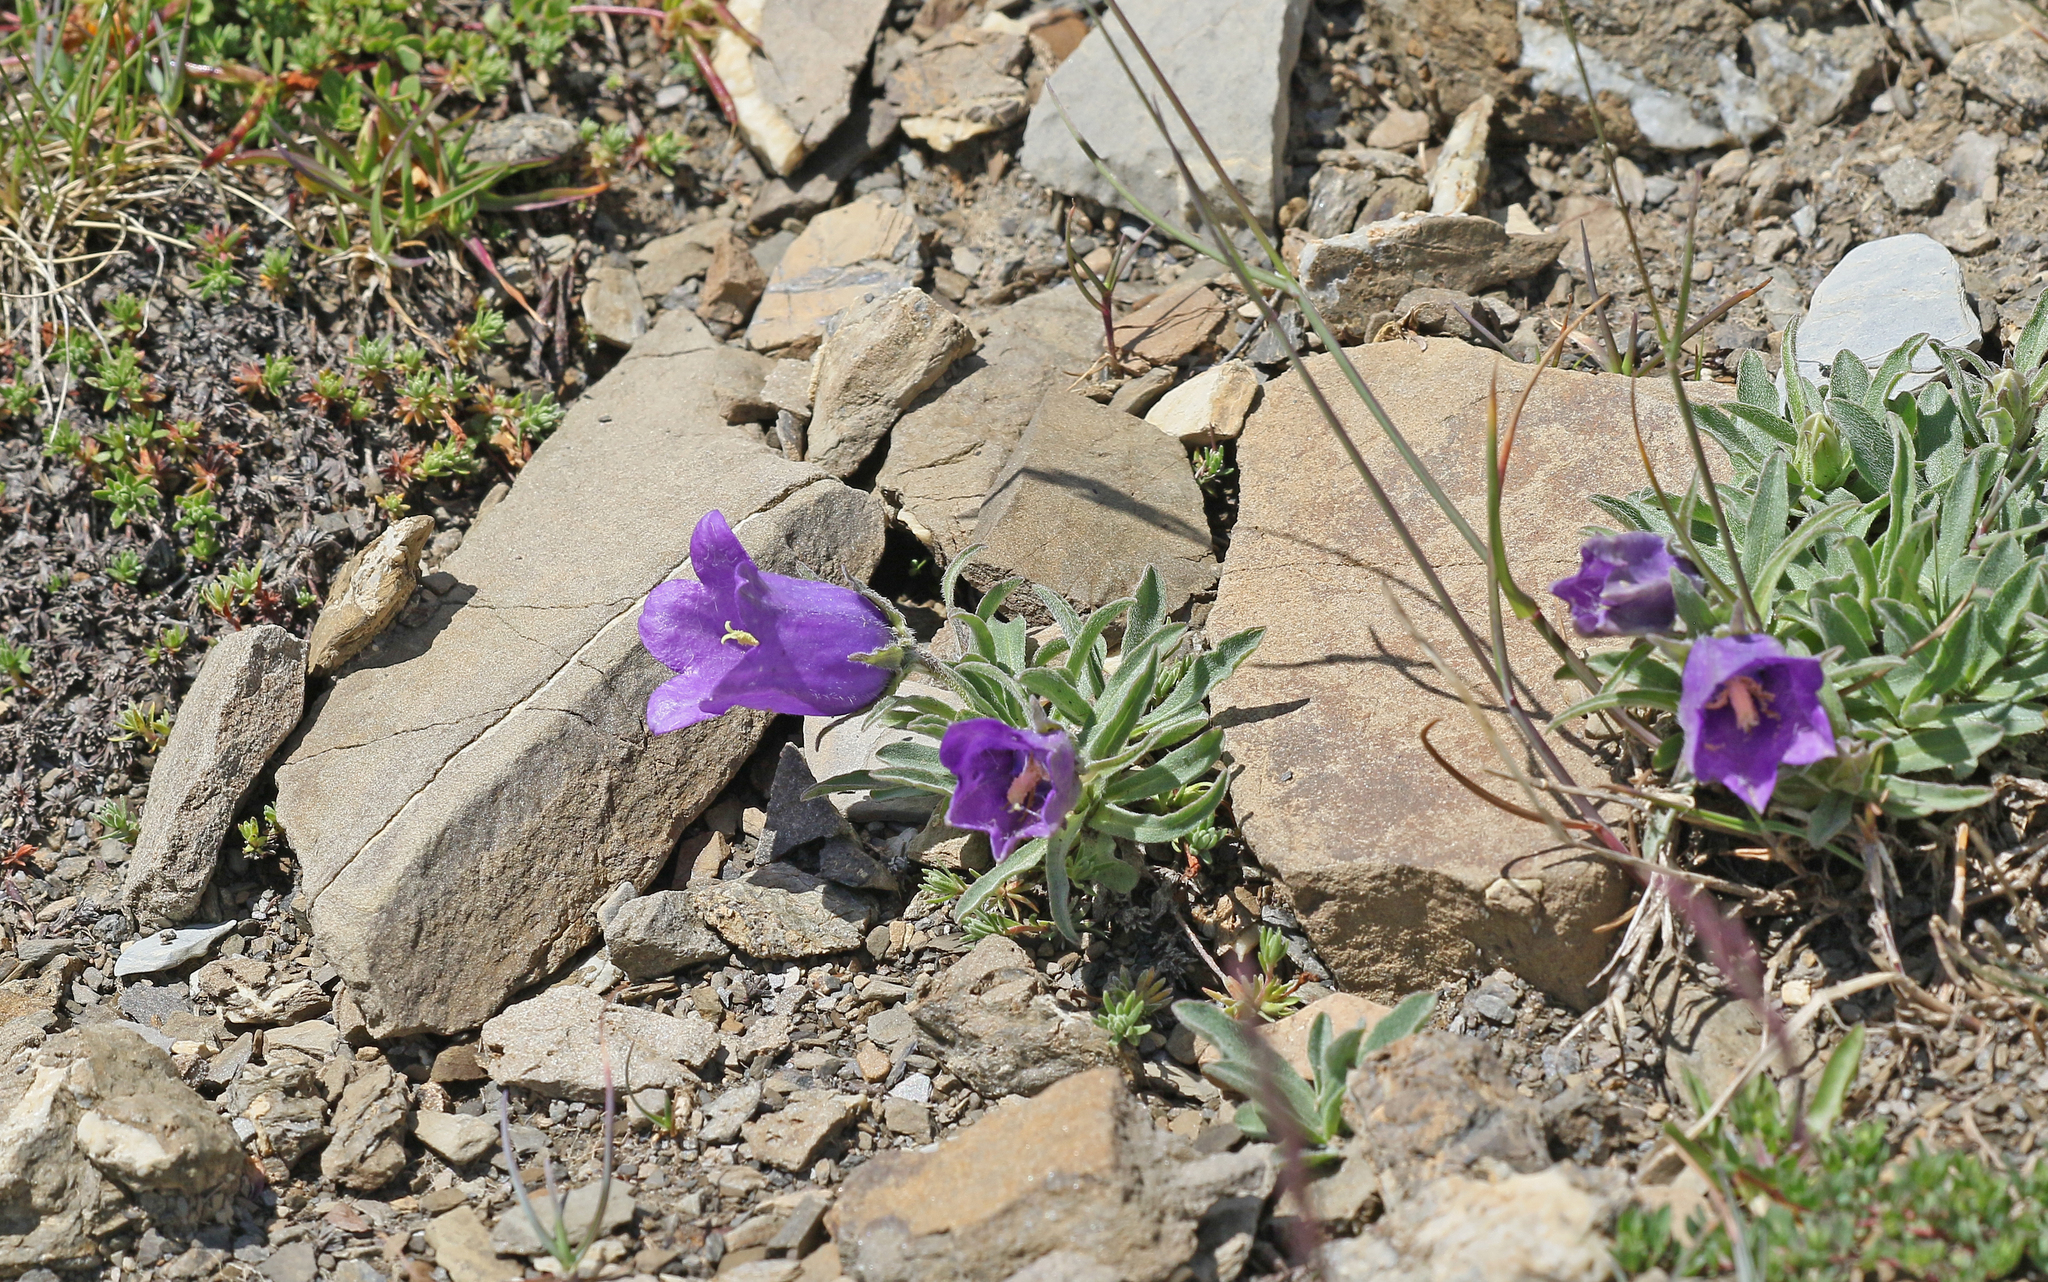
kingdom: Plantae
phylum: Tracheophyta
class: Magnoliopsida
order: Asterales
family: Campanulaceae
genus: Campanula
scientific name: Campanula alpestris
